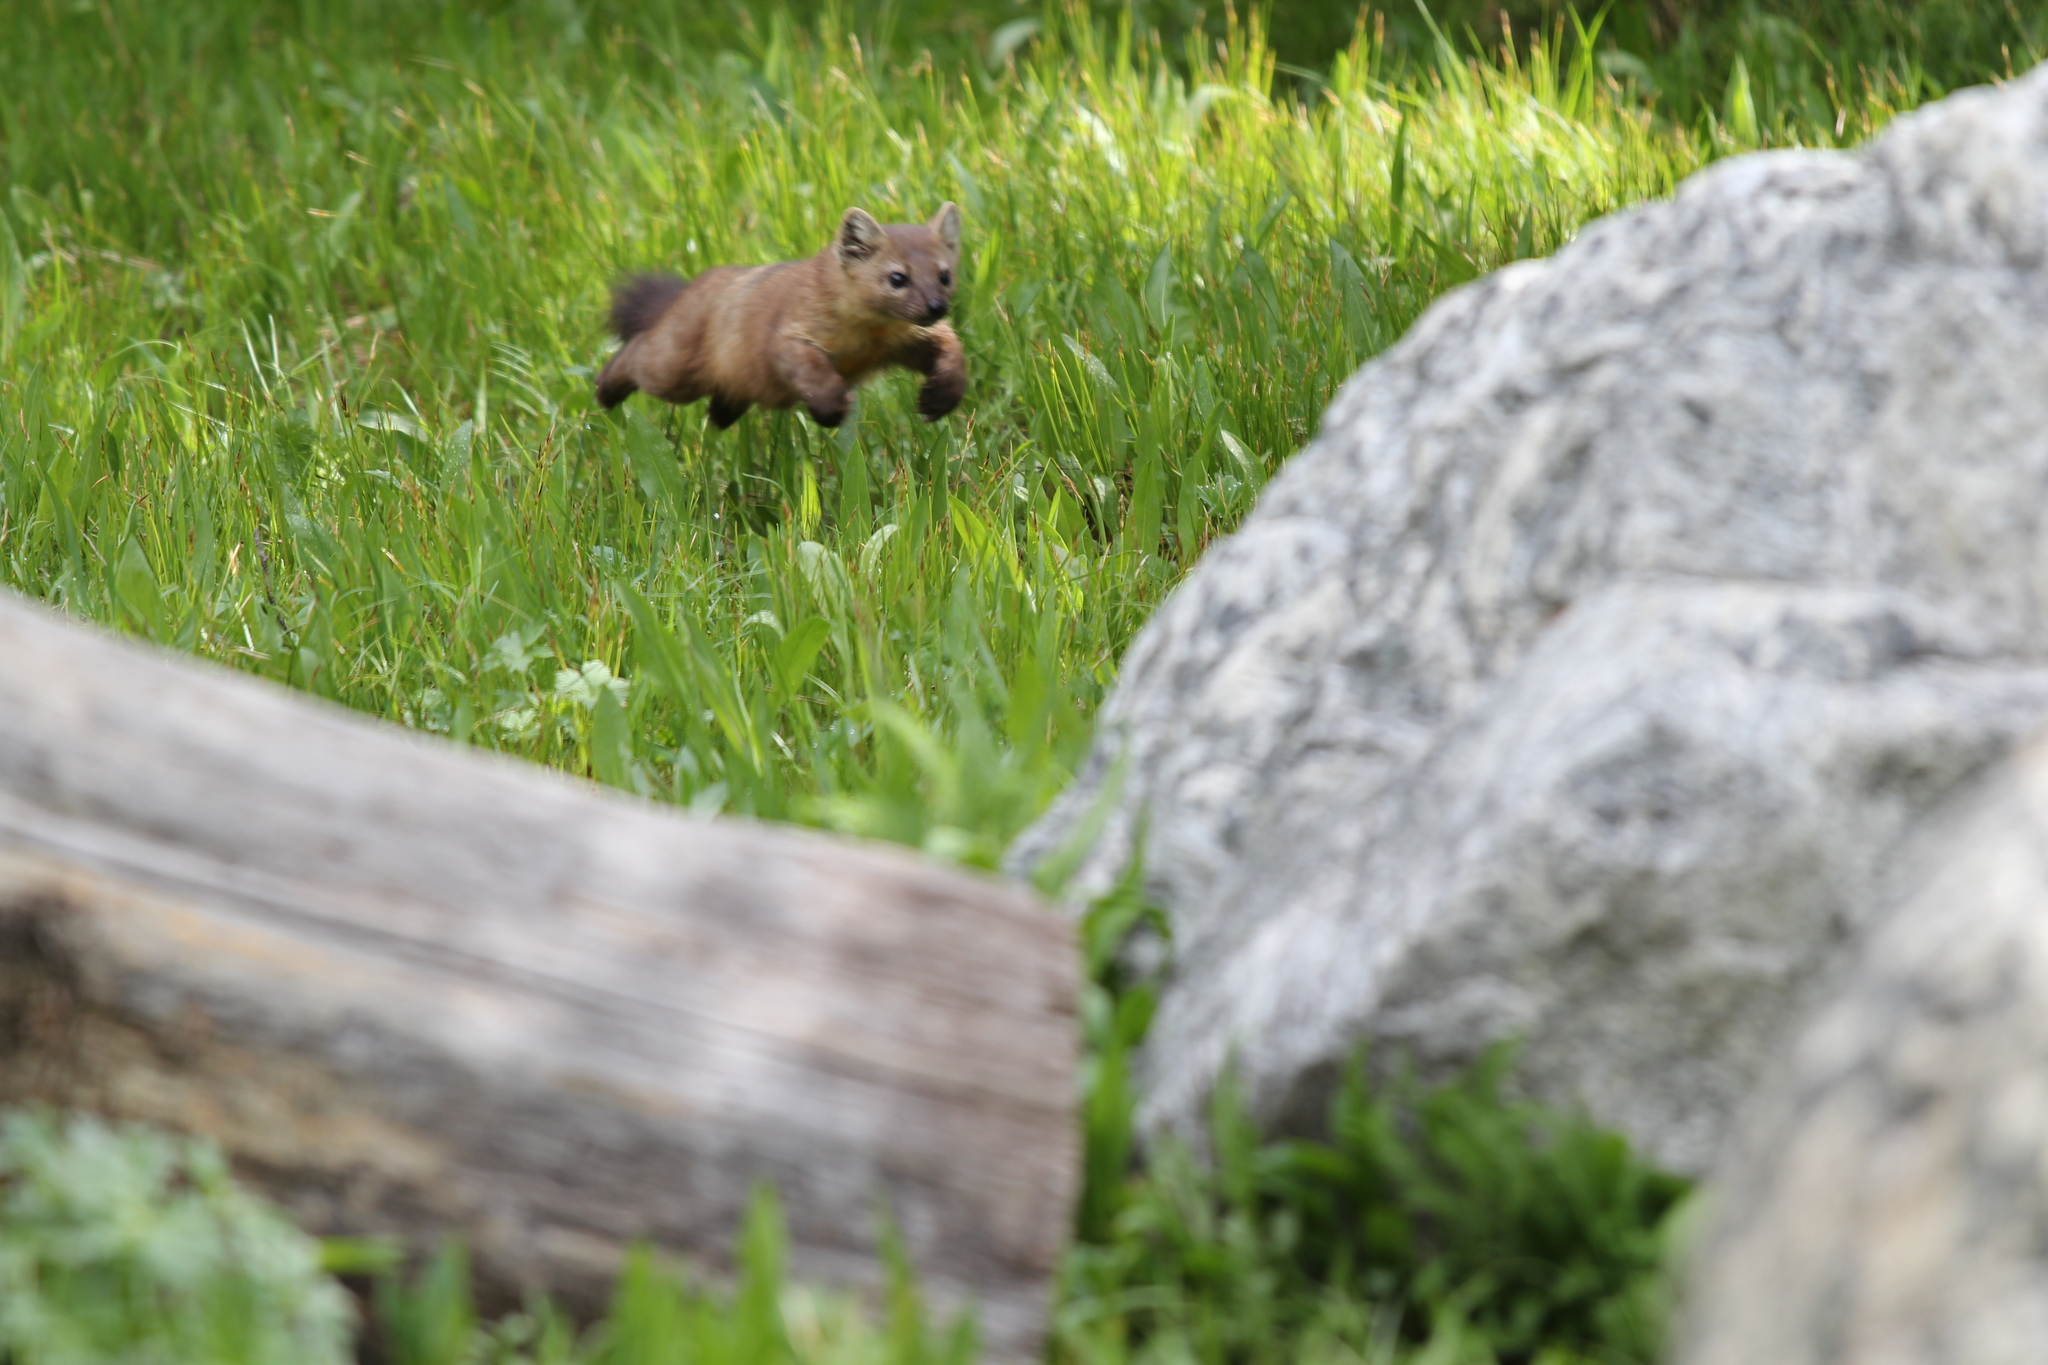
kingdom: Animalia
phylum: Chordata
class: Mammalia
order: Carnivora
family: Mustelidae
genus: Martes
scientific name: Martes caurina
